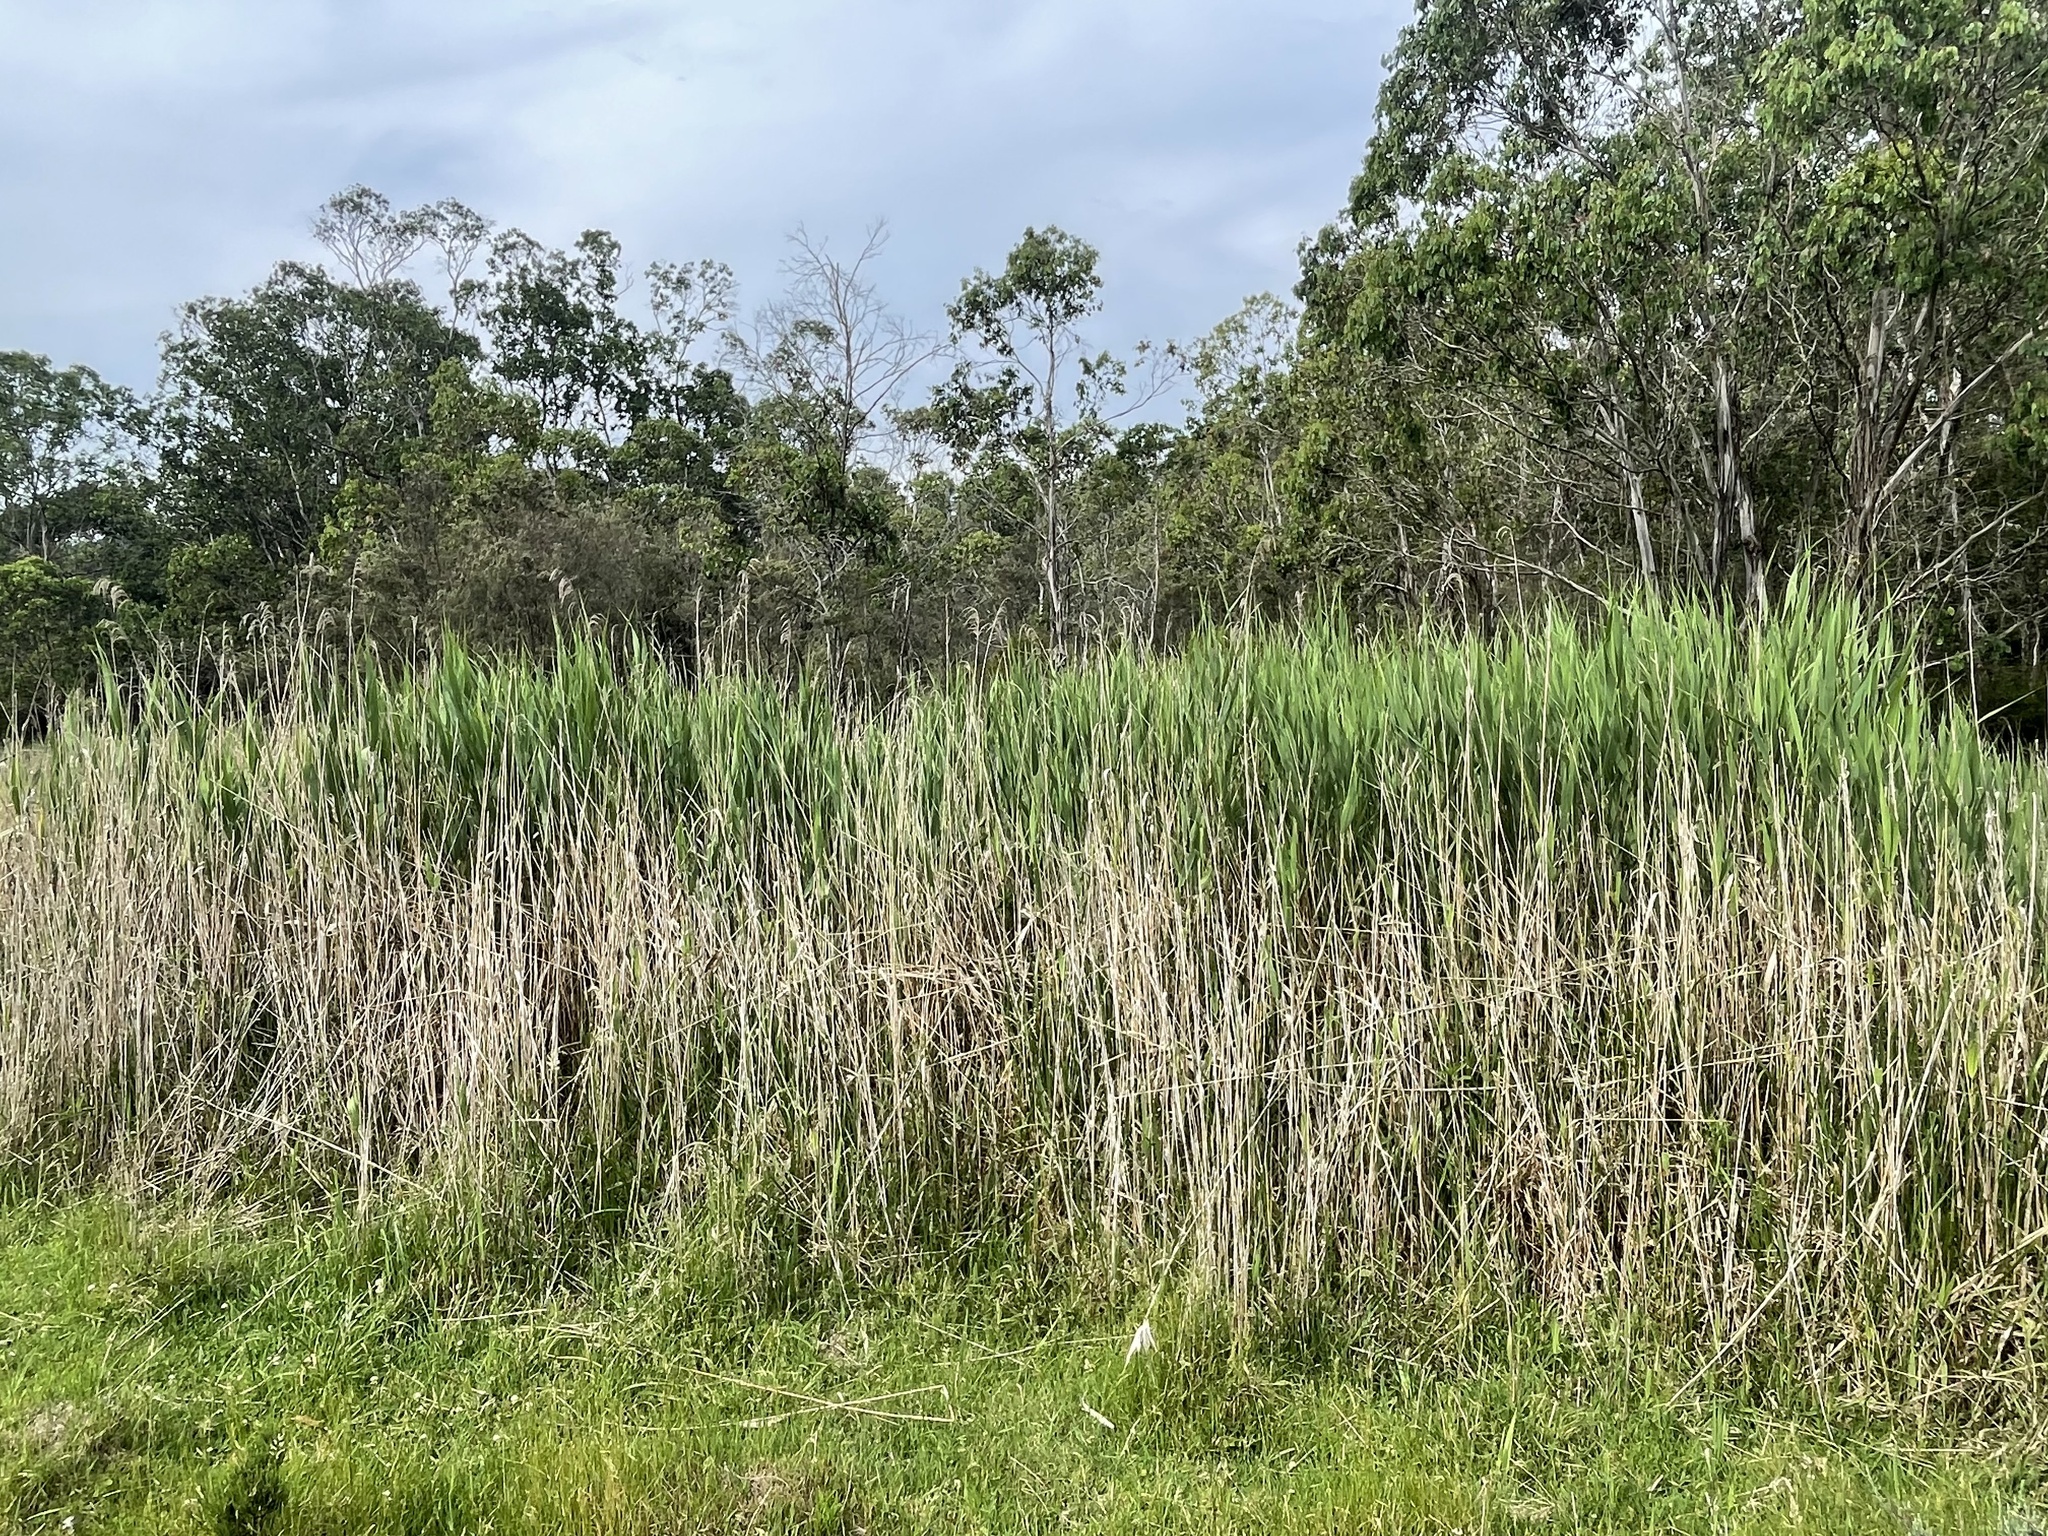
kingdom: Plantae
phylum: Tracheophyta
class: Liliopsida
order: Poales
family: Poaceae
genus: Phragmites
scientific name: Phragmites australis
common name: Common reed
